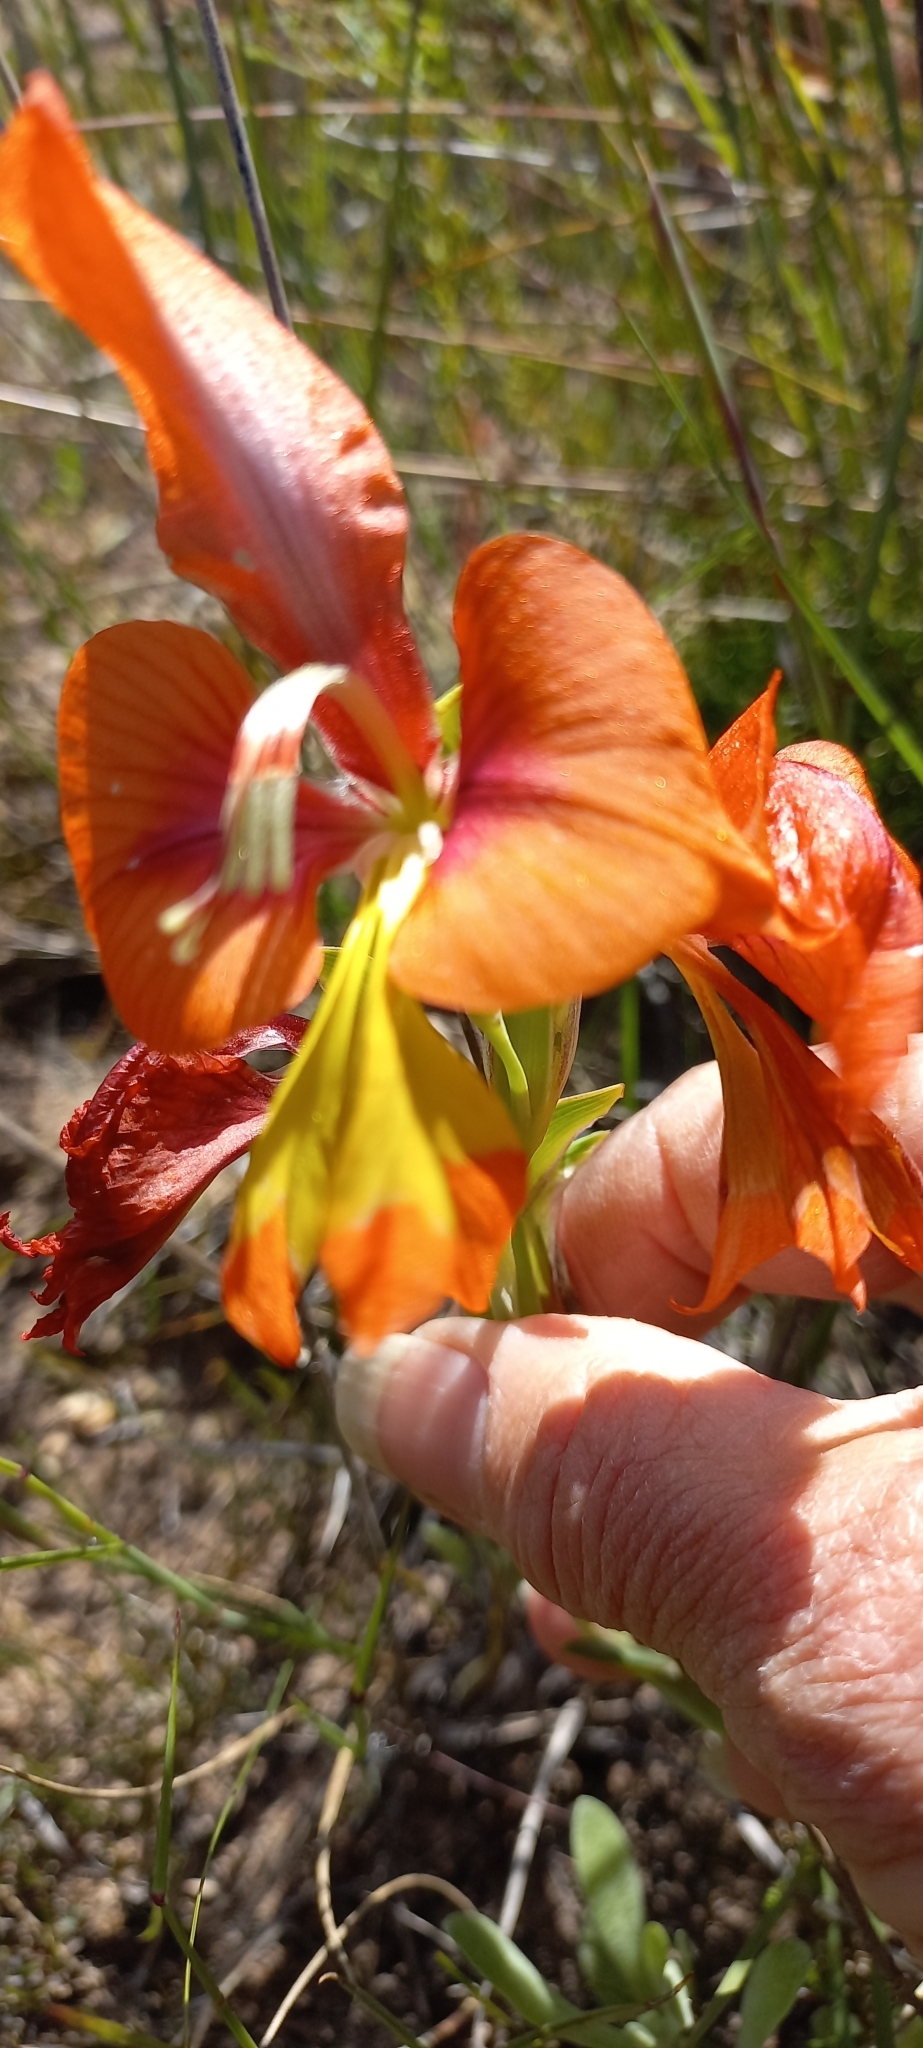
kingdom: Plantae
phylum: Tracheophyta
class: Liliopsida
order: Asparagales
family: Iridaceae
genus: Gladiolus
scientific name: Gladiolus alatus
